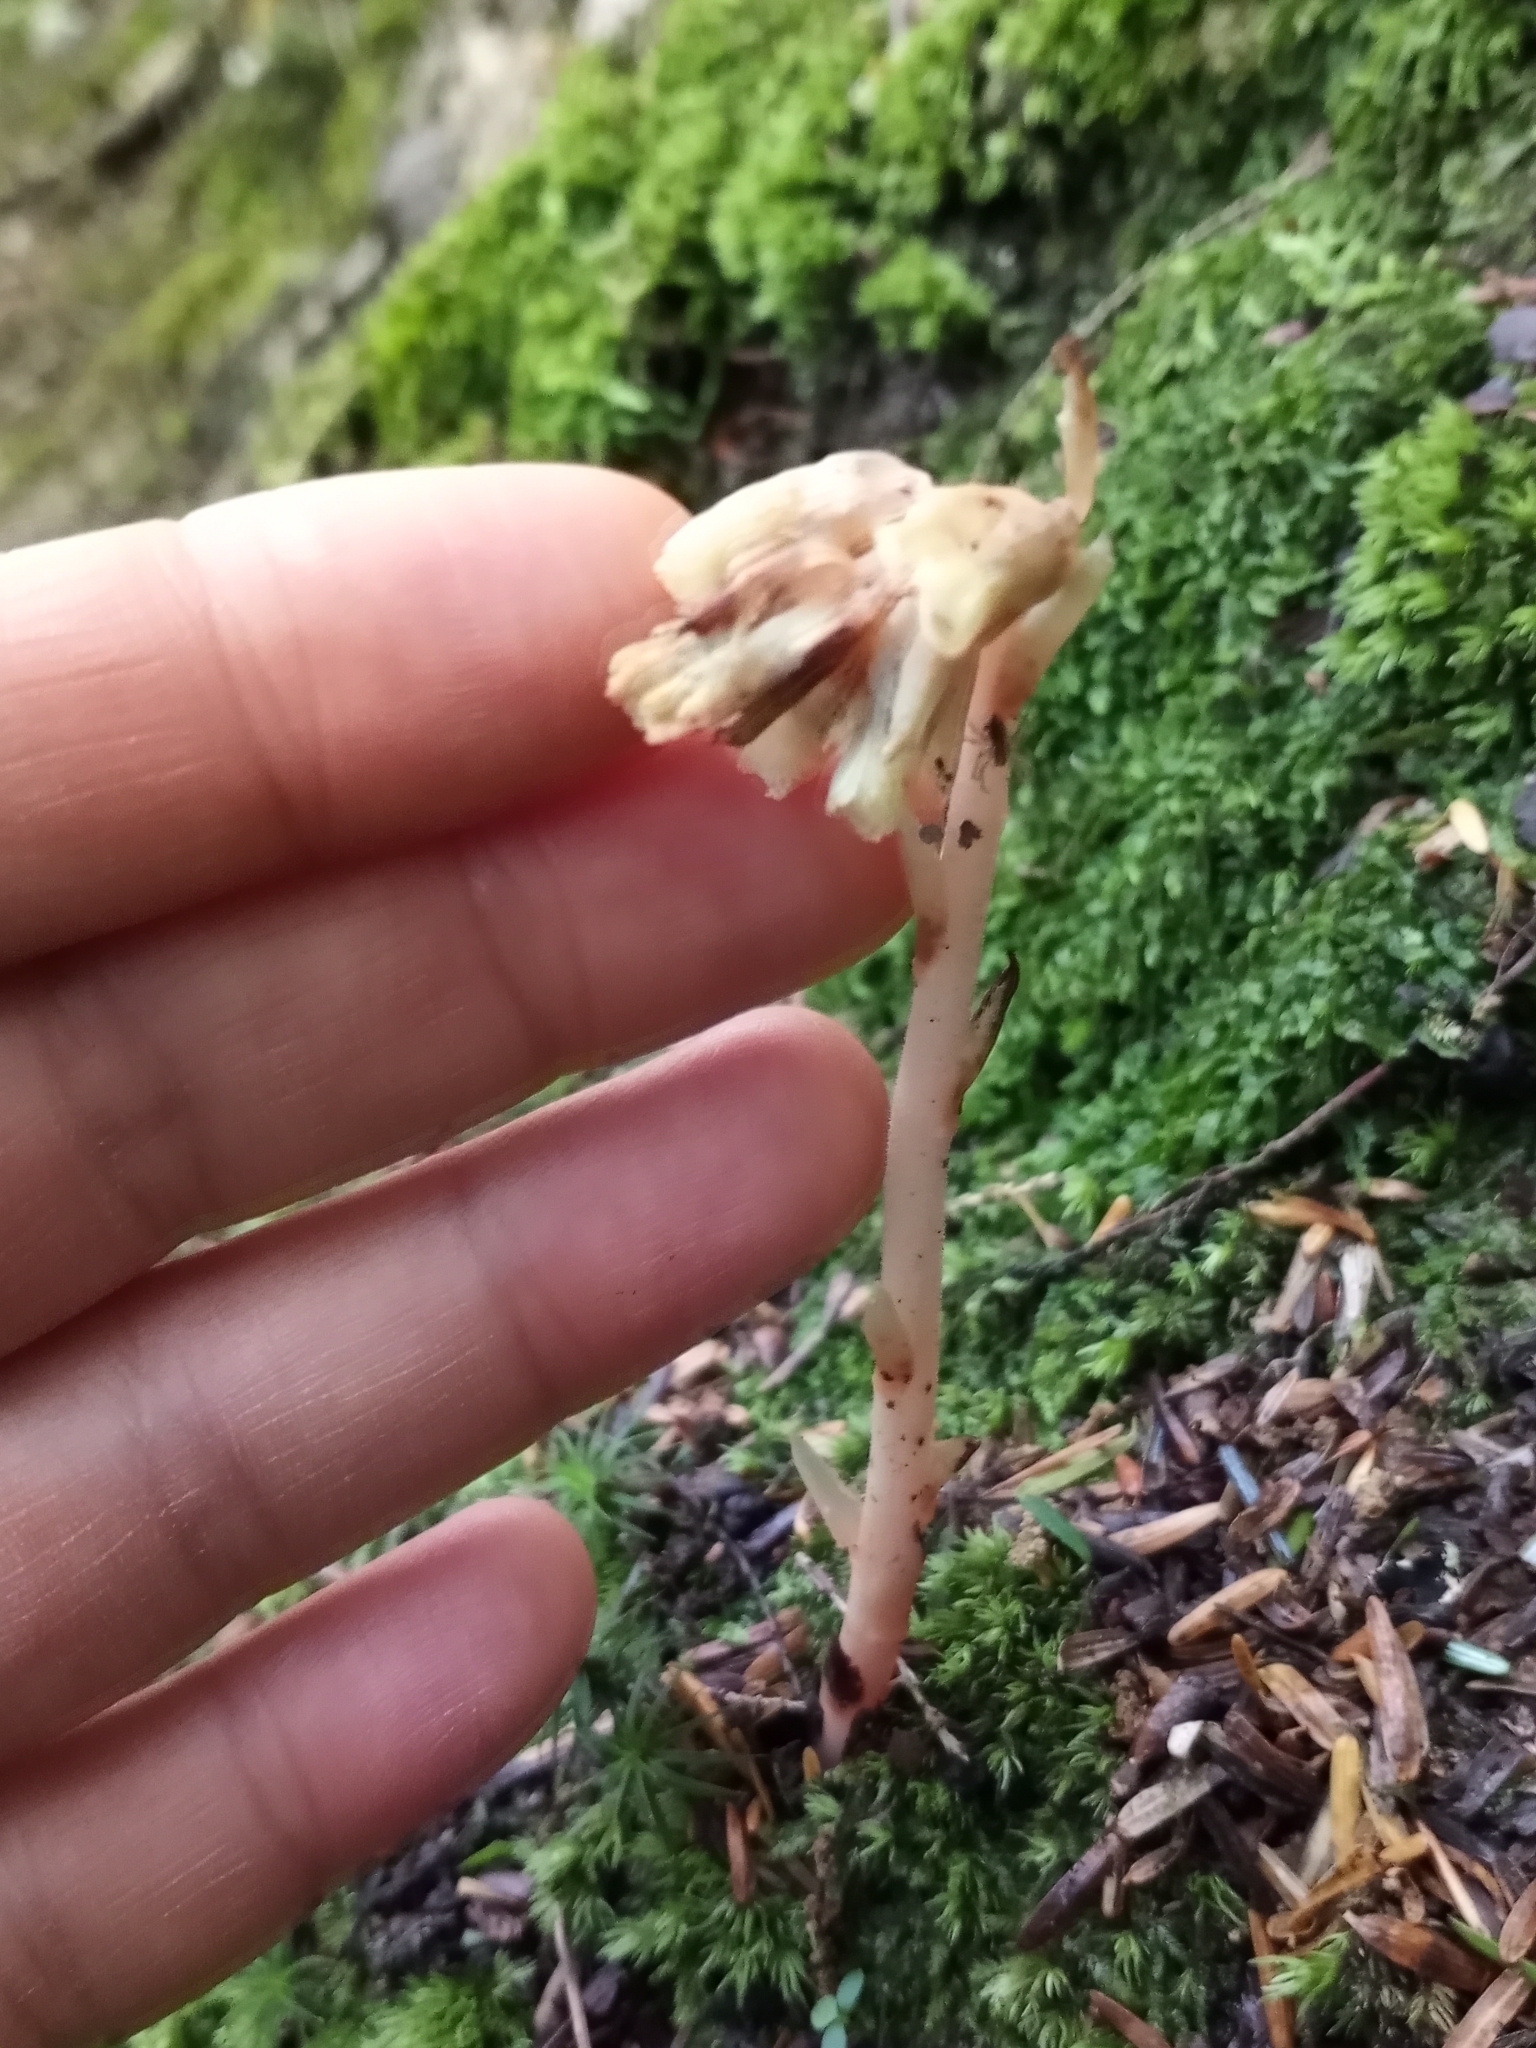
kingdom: Plantae
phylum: Tracheophyta
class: Magnoliopsida
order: Ericales
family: Ericaceae
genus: Hypopitys
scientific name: Hypopitys monotropa
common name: Yellow bird's-nest
